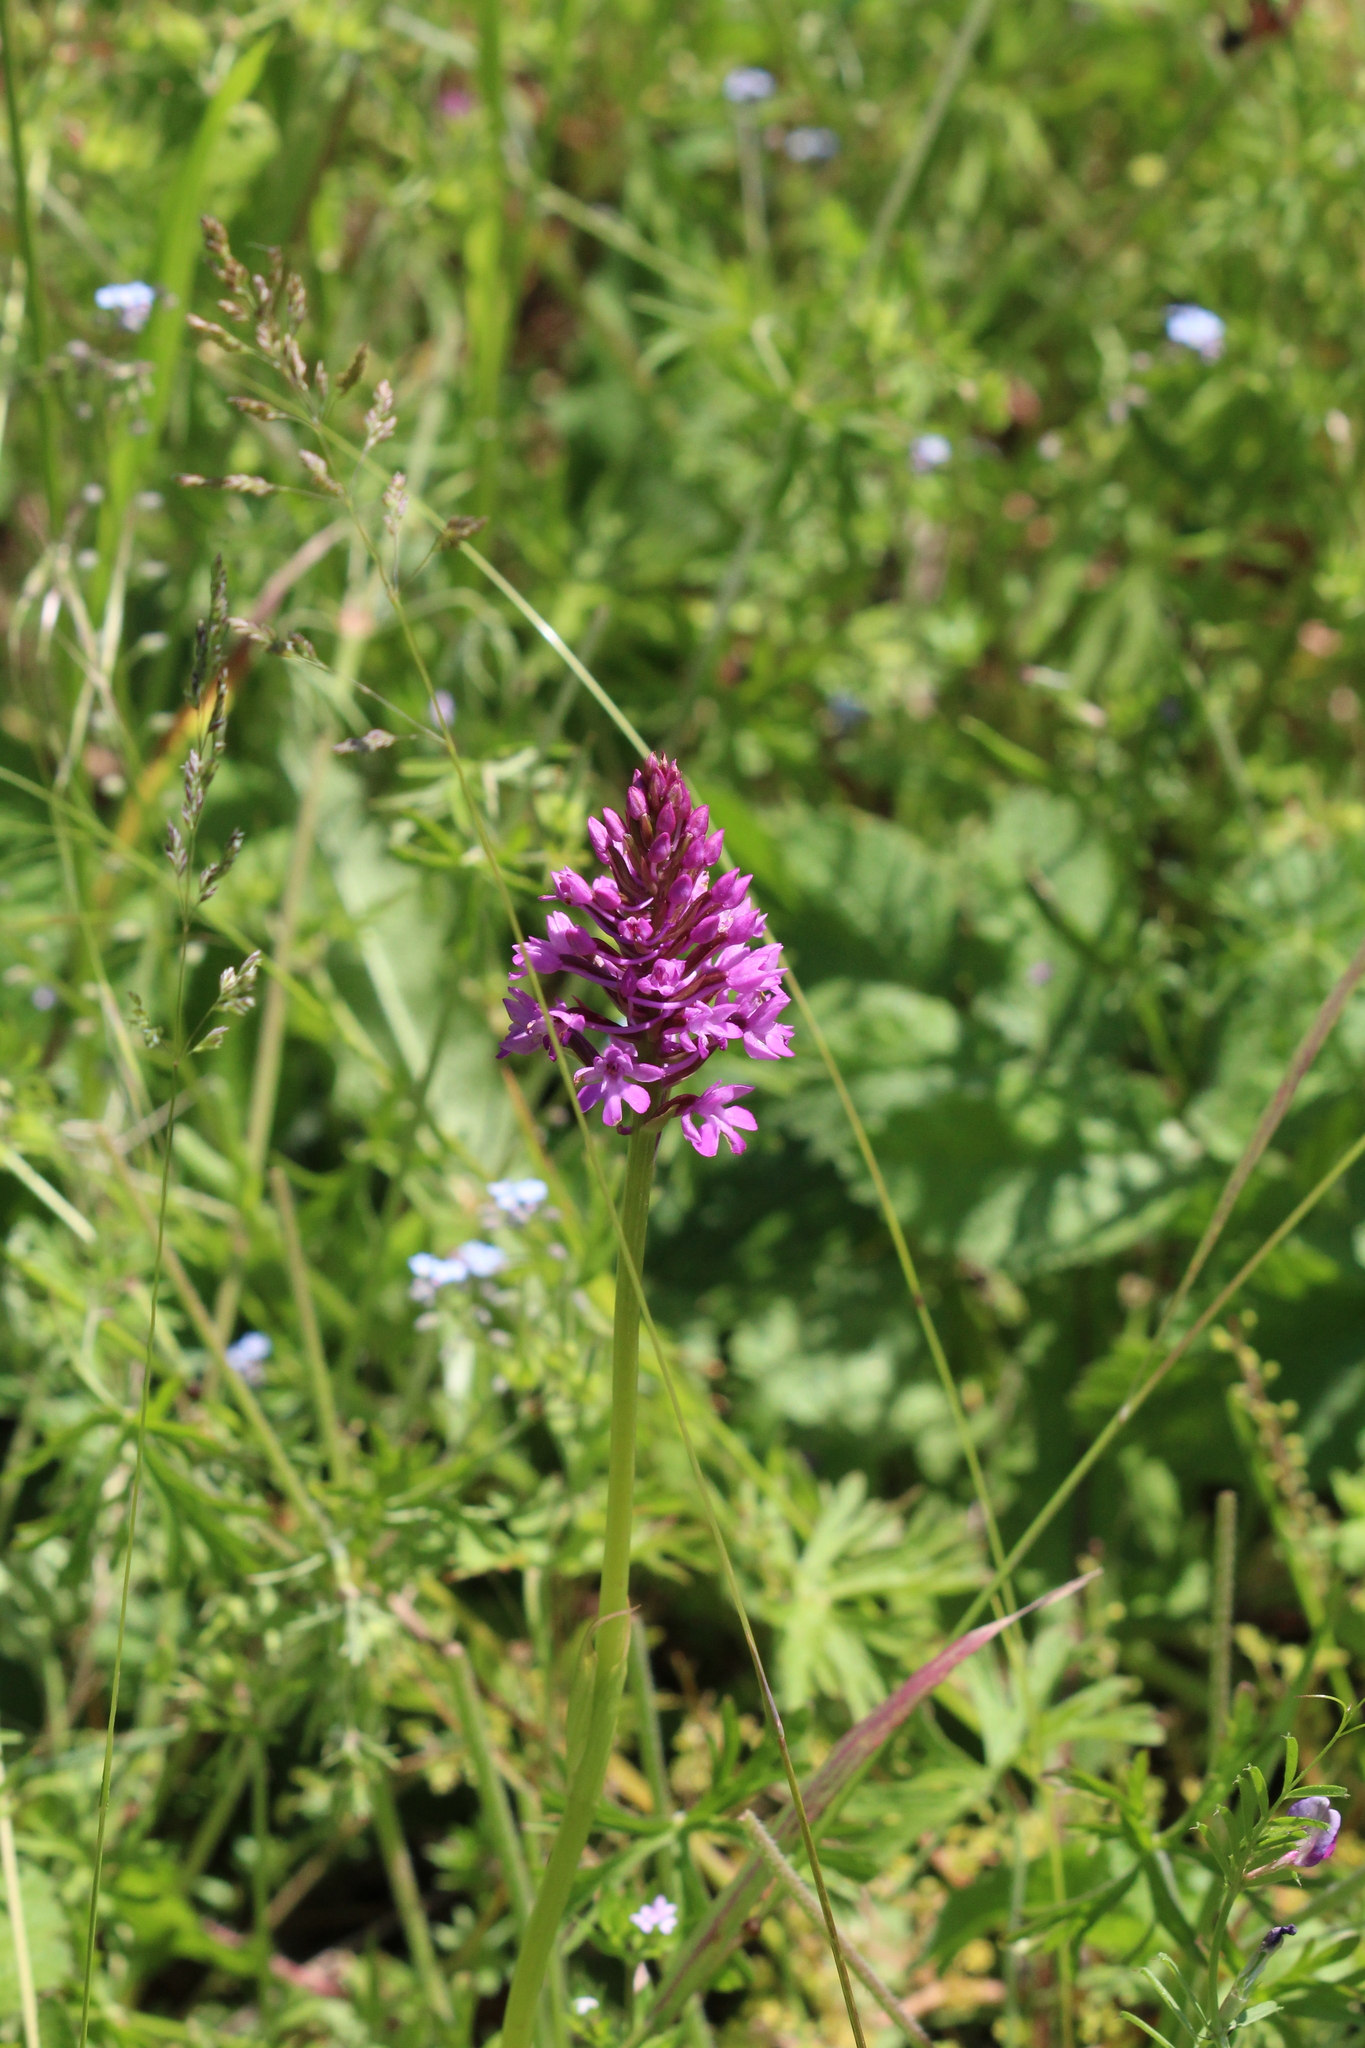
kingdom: Plantae
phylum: Tracheophyta
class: Liliopsida
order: Asparagales
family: Orchidaceae
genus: Anacamptis
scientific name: Anacamptis pyramidalis
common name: Pyramidal orchid
